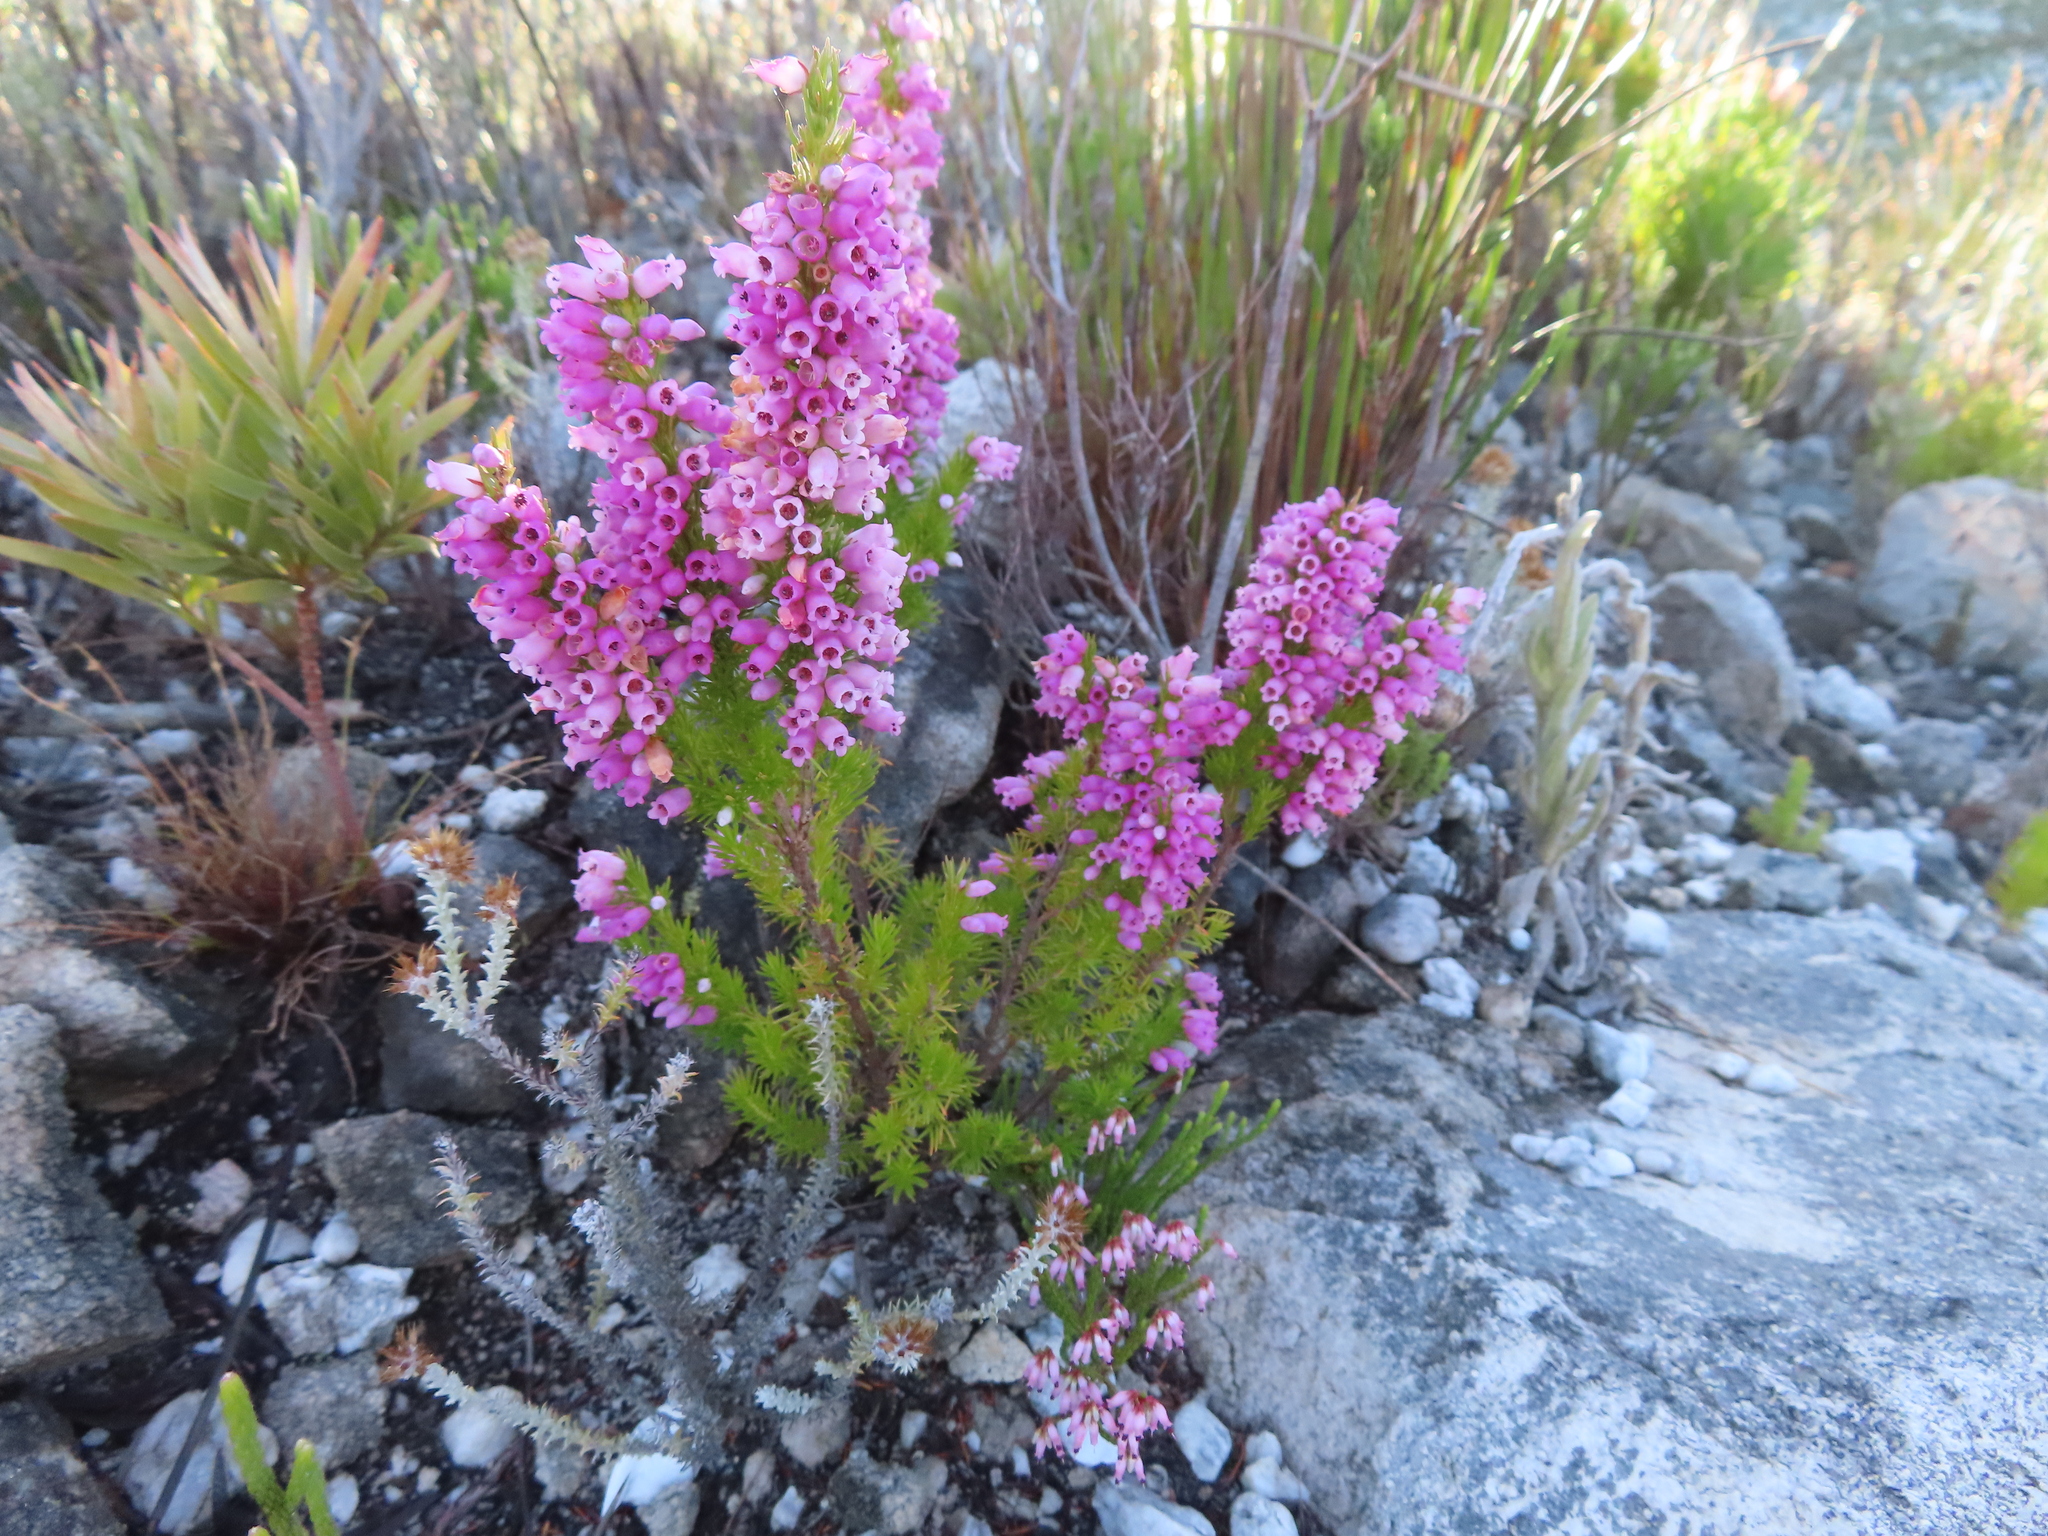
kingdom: Plantae
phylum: Tracheophyta
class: Magnoliopsida
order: Ericales
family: Ericaceae
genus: Erica
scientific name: Erica tenella
